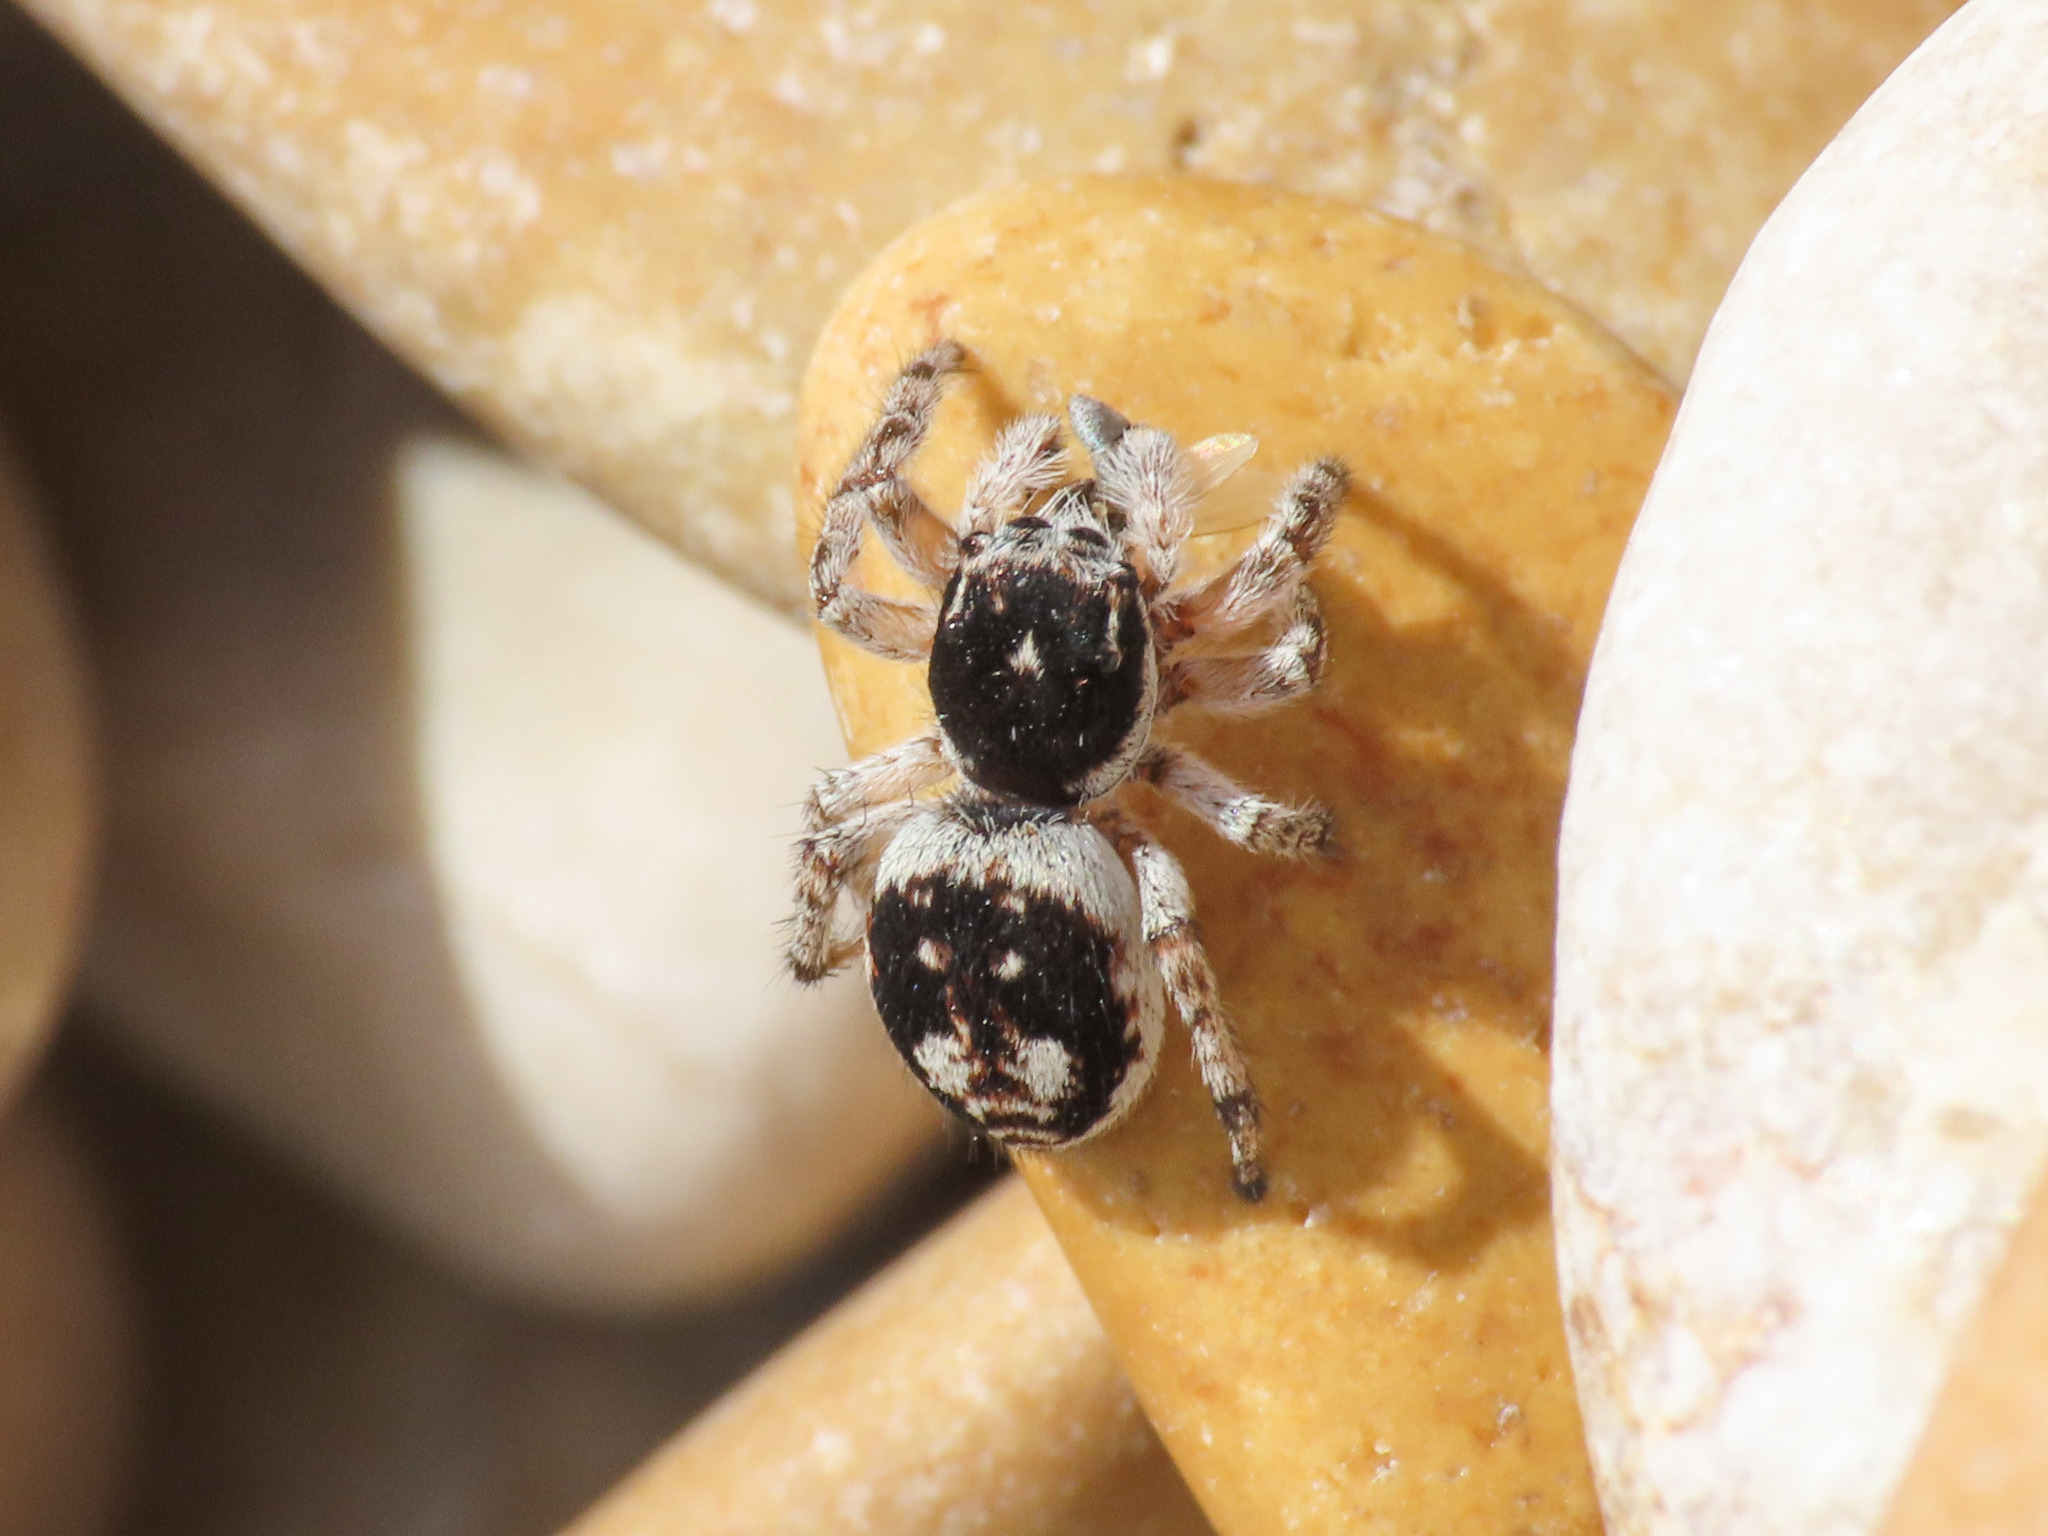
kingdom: Animalia
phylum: Arthropoda
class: Arachnida
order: Araneae
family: Salticidae
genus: Attulus
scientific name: Attulus damini
